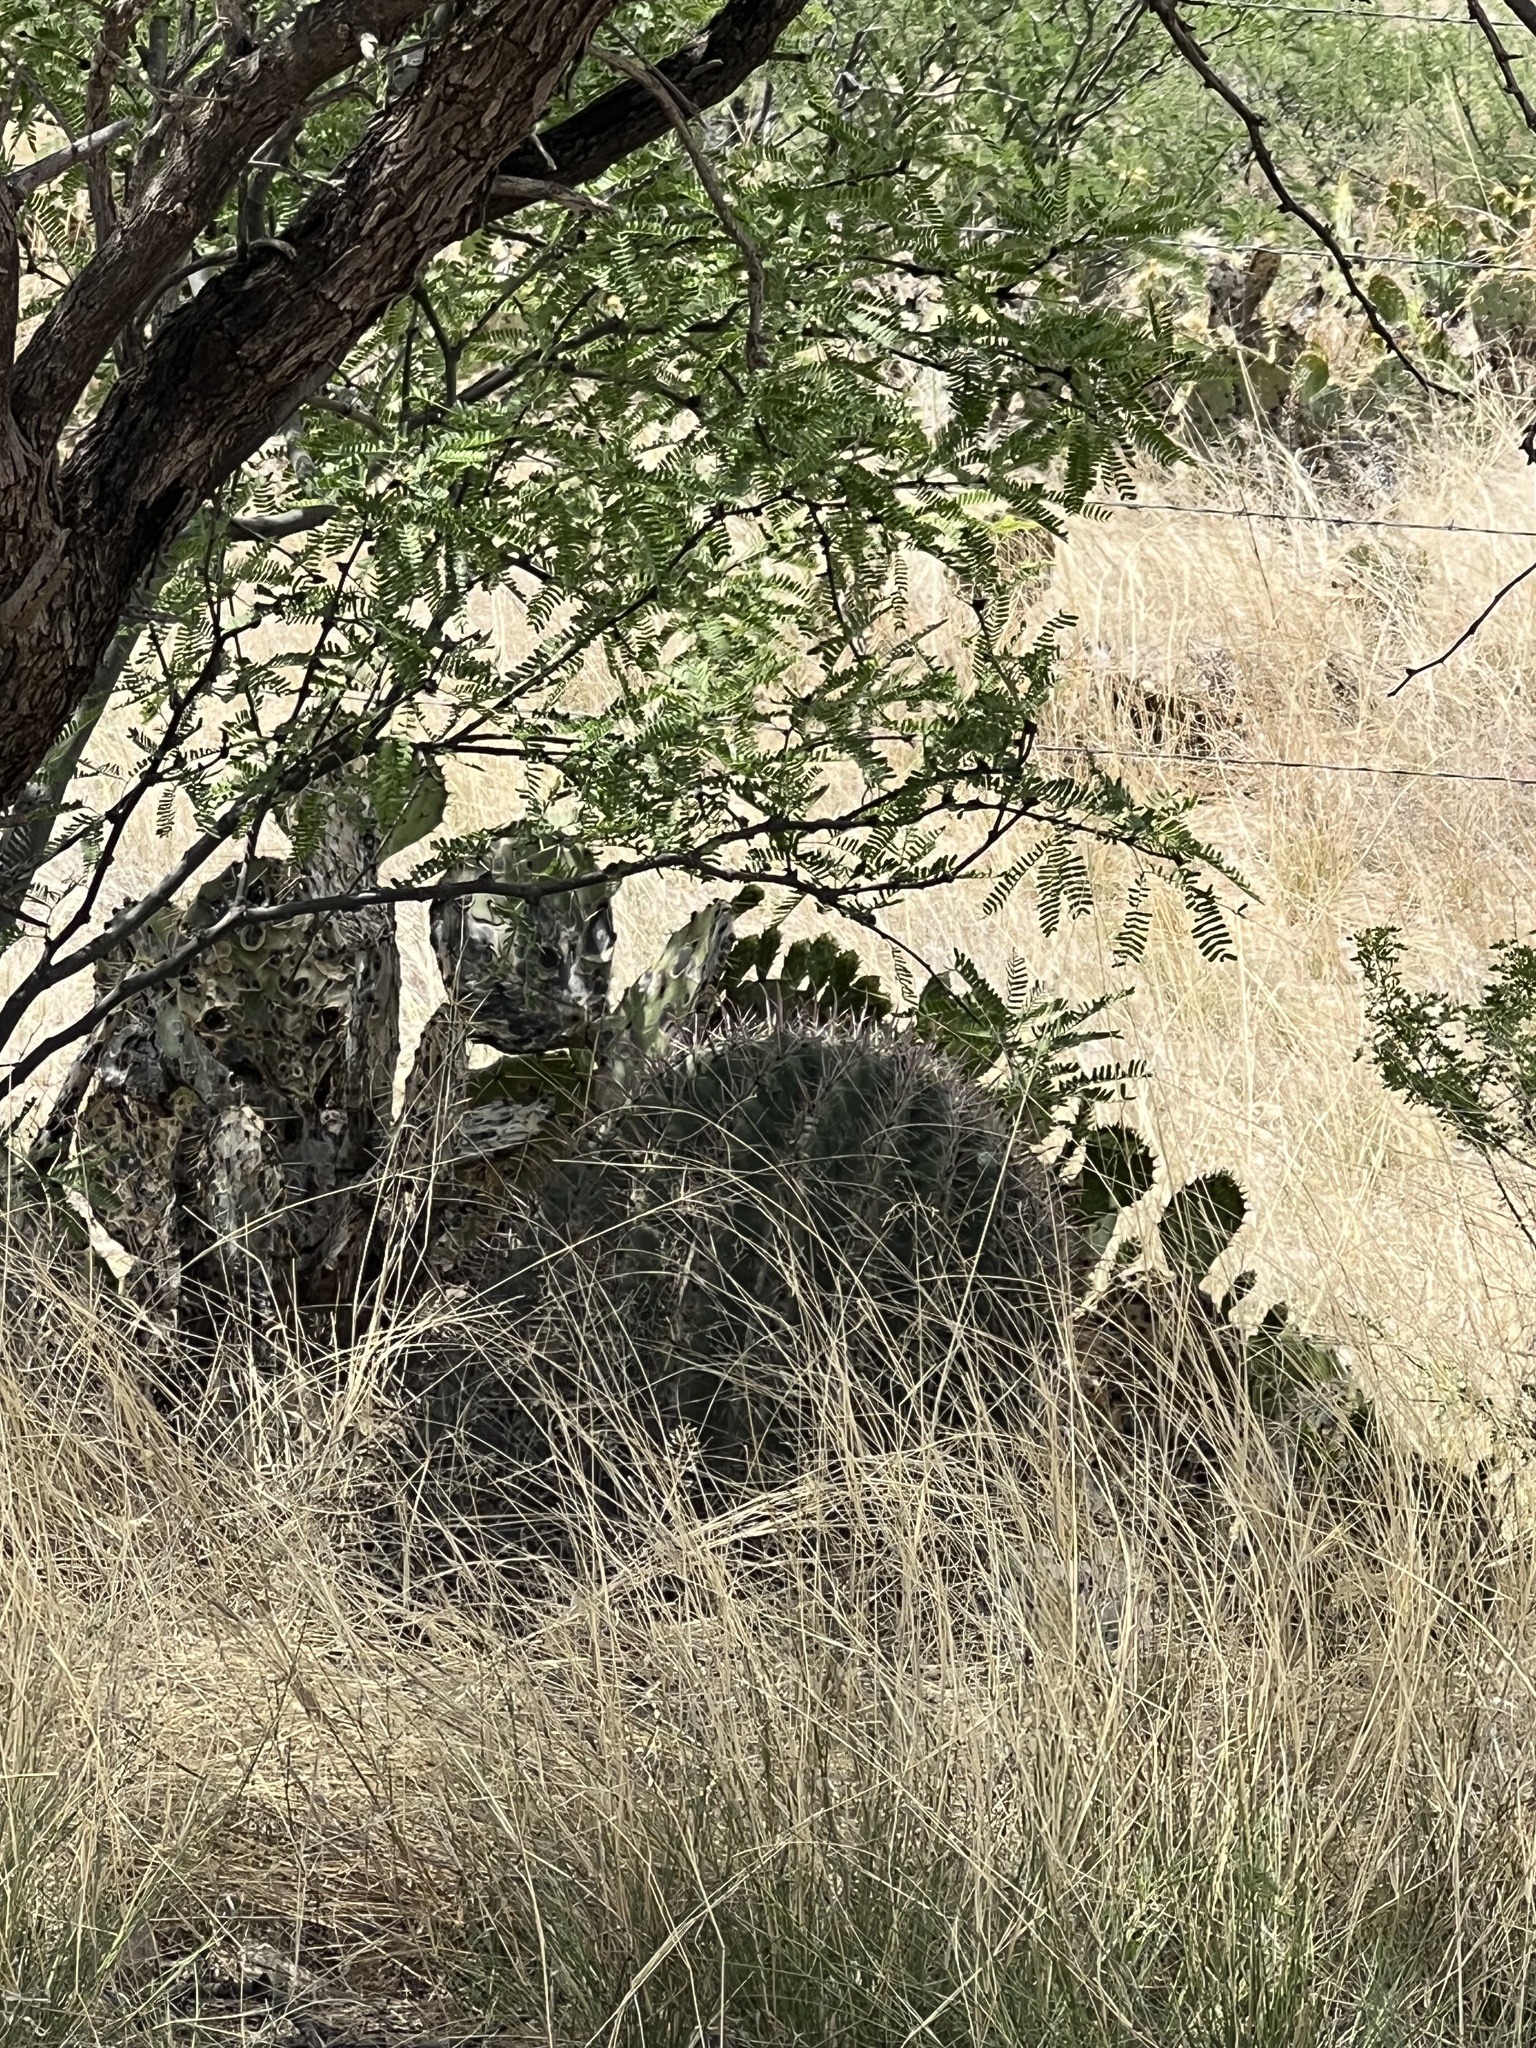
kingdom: Plantae
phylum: Tracheophyta
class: Magnoliopsida
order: Caryophyllales
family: Cactaceae
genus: Ferocactus
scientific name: Ferocactus wislizeni
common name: Candy barrel cactus
